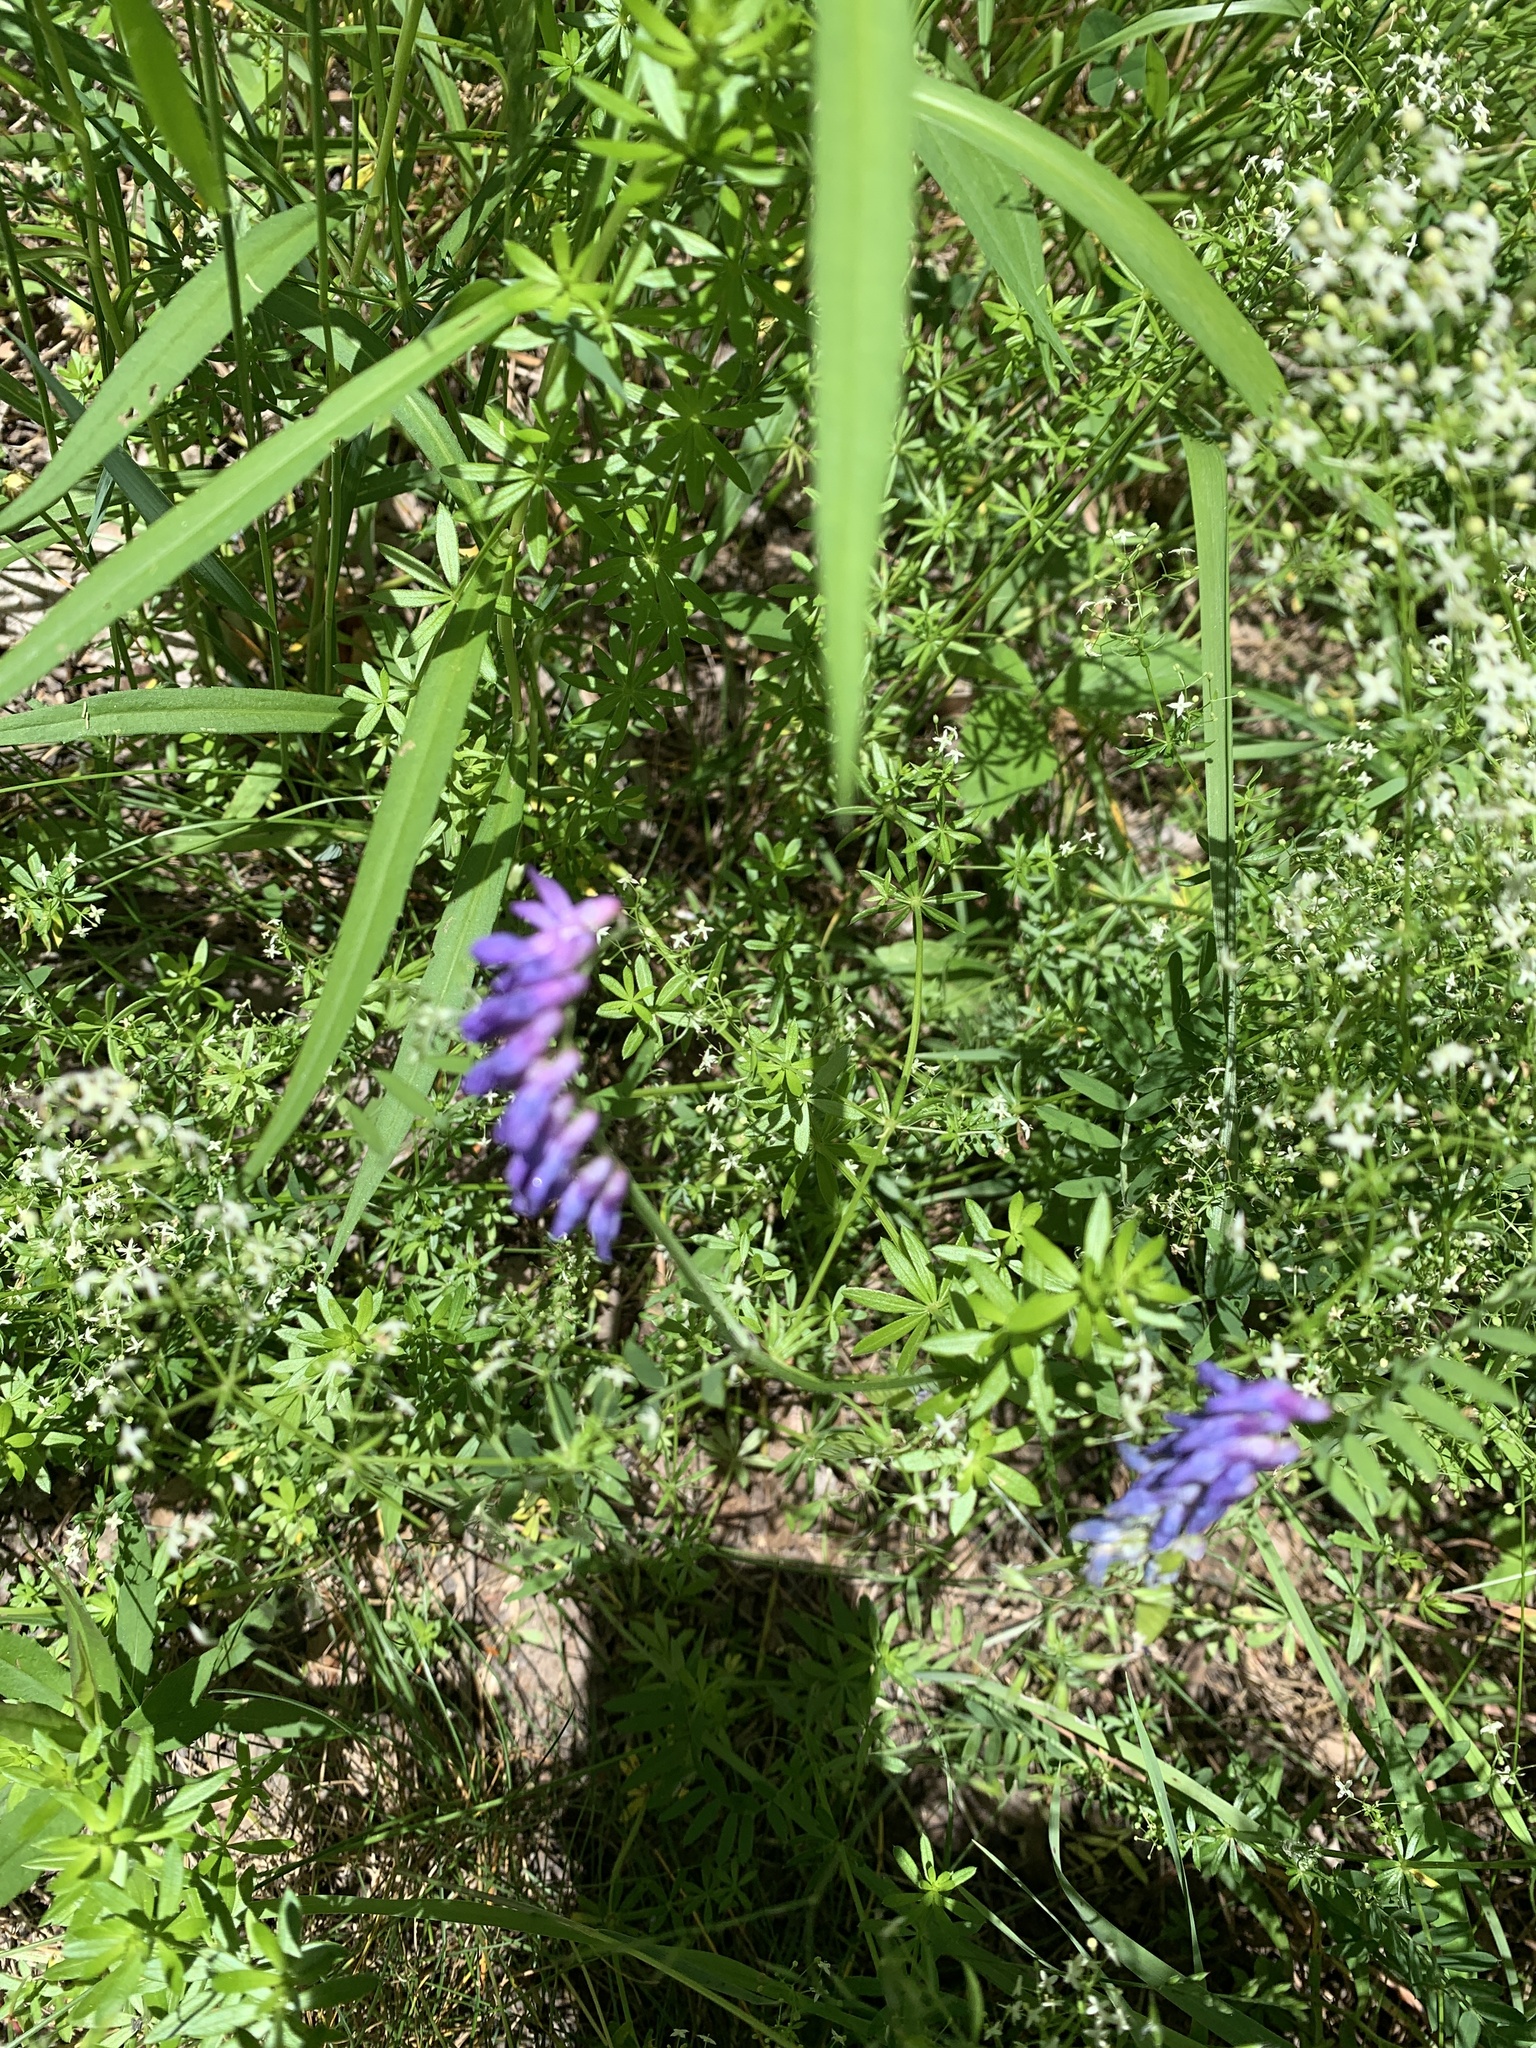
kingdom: Plantae
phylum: Tracheophyta
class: Magnoliopsida
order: Fabales
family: Fabaceae
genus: Vicia
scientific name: Vicia cracca
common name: Bird vetch
